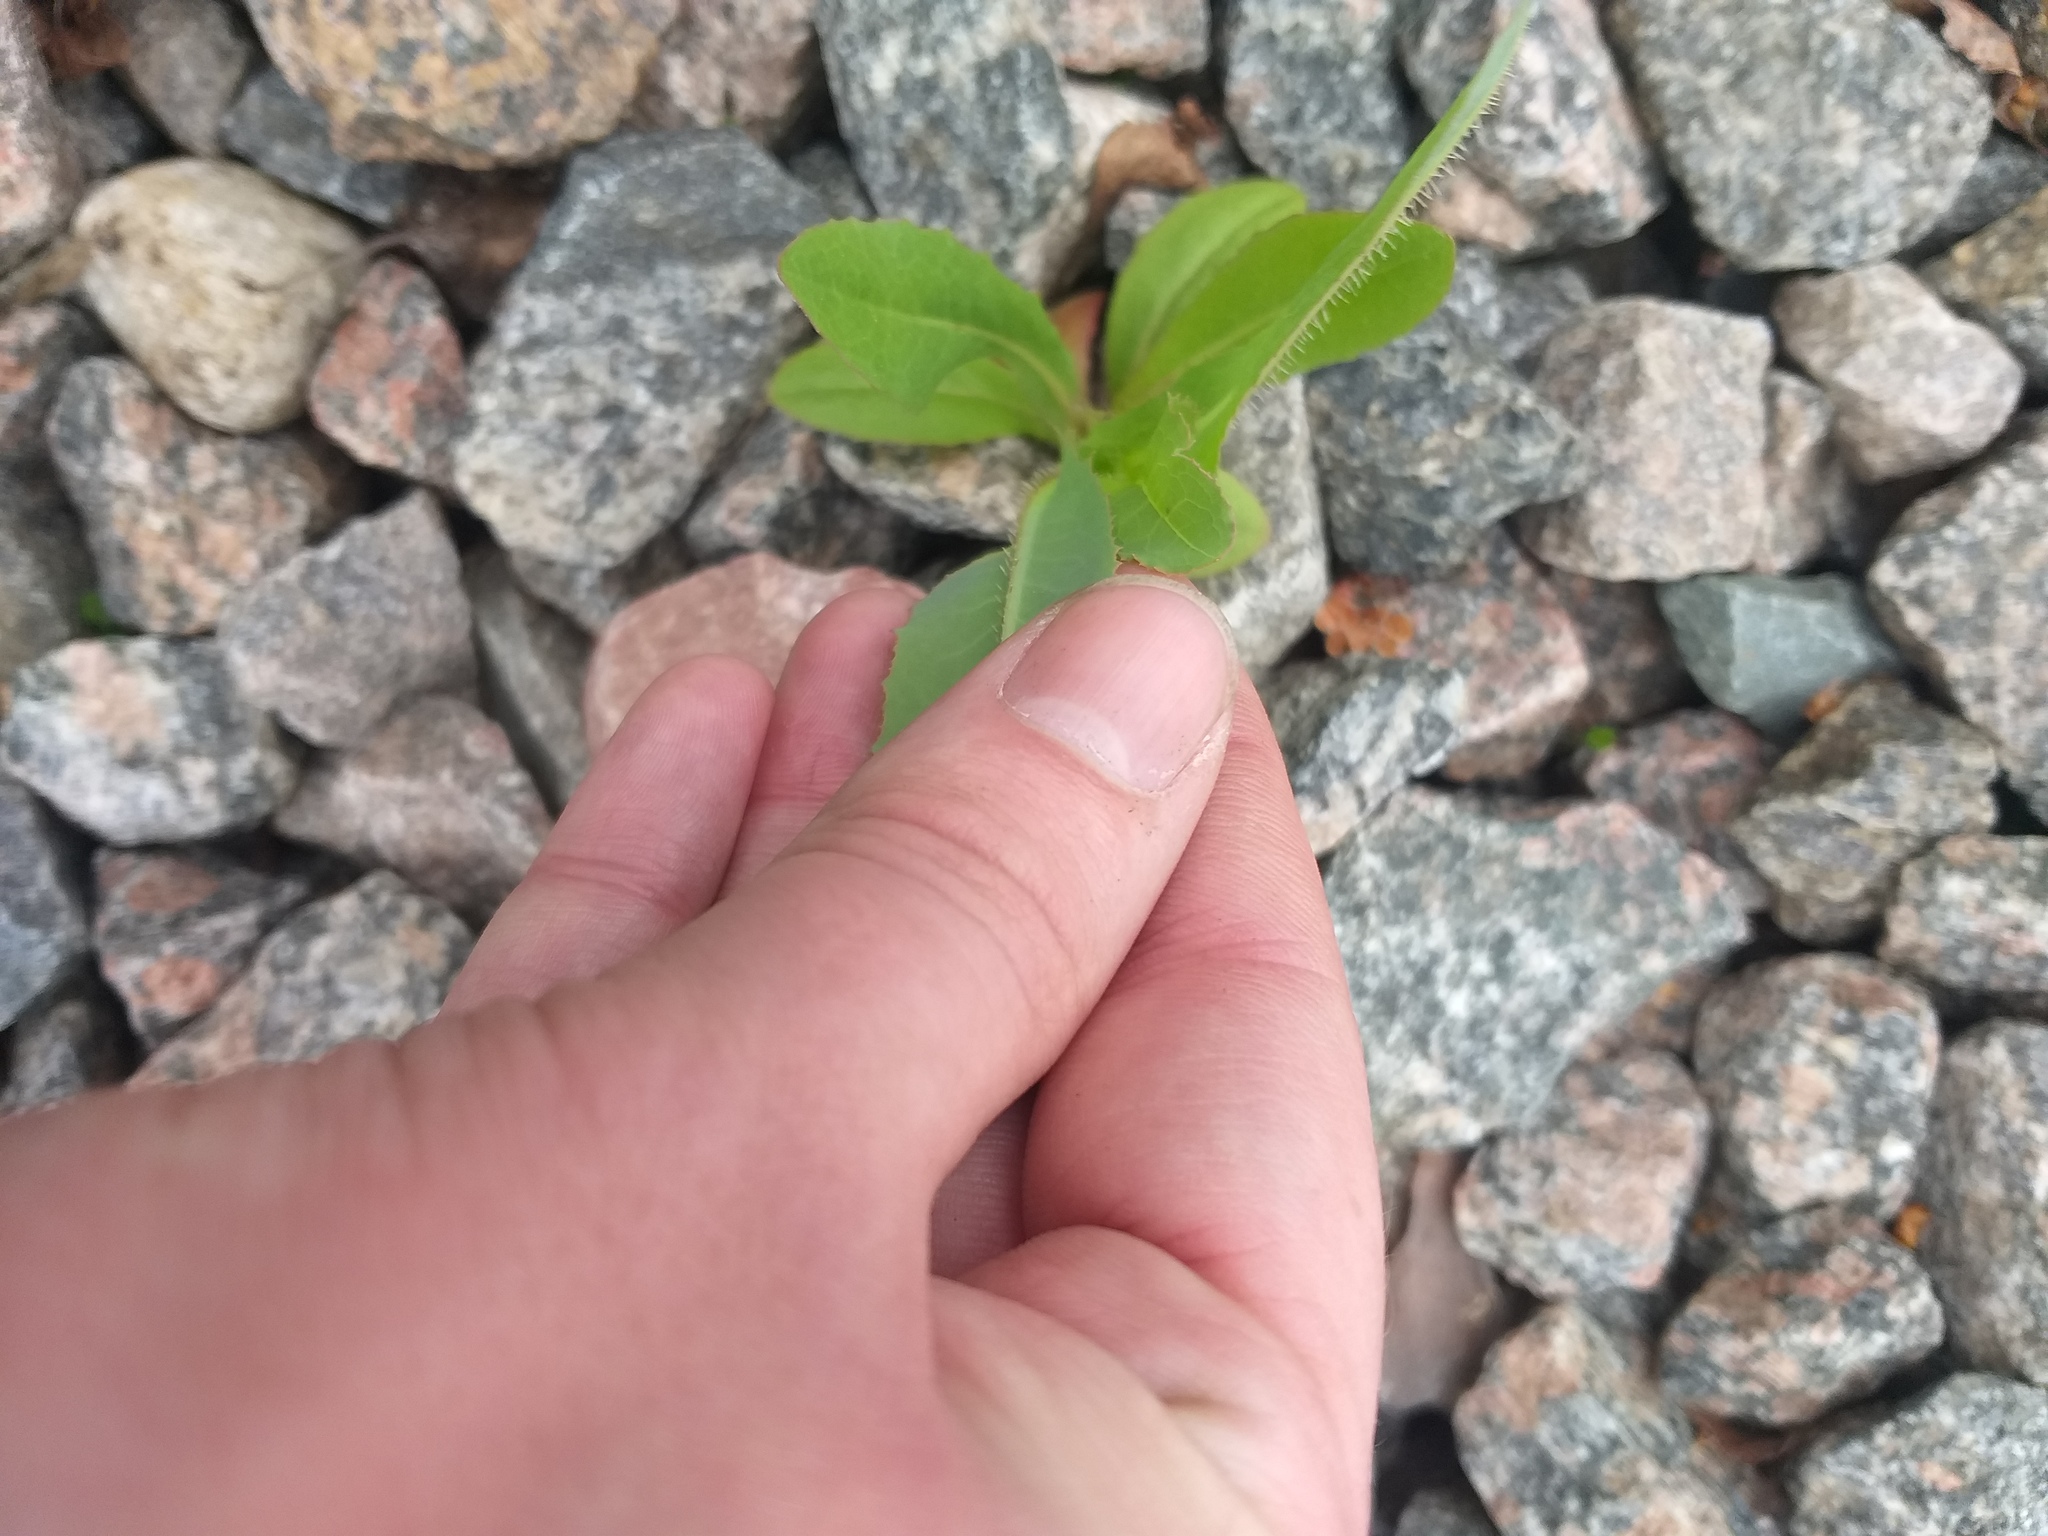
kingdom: Plantae
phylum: Tracheophyta
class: Magnoliopsida
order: Asterales
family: Asteraceae
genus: Lactuca
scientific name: Lactuca serriola
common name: Prickly lettuce
